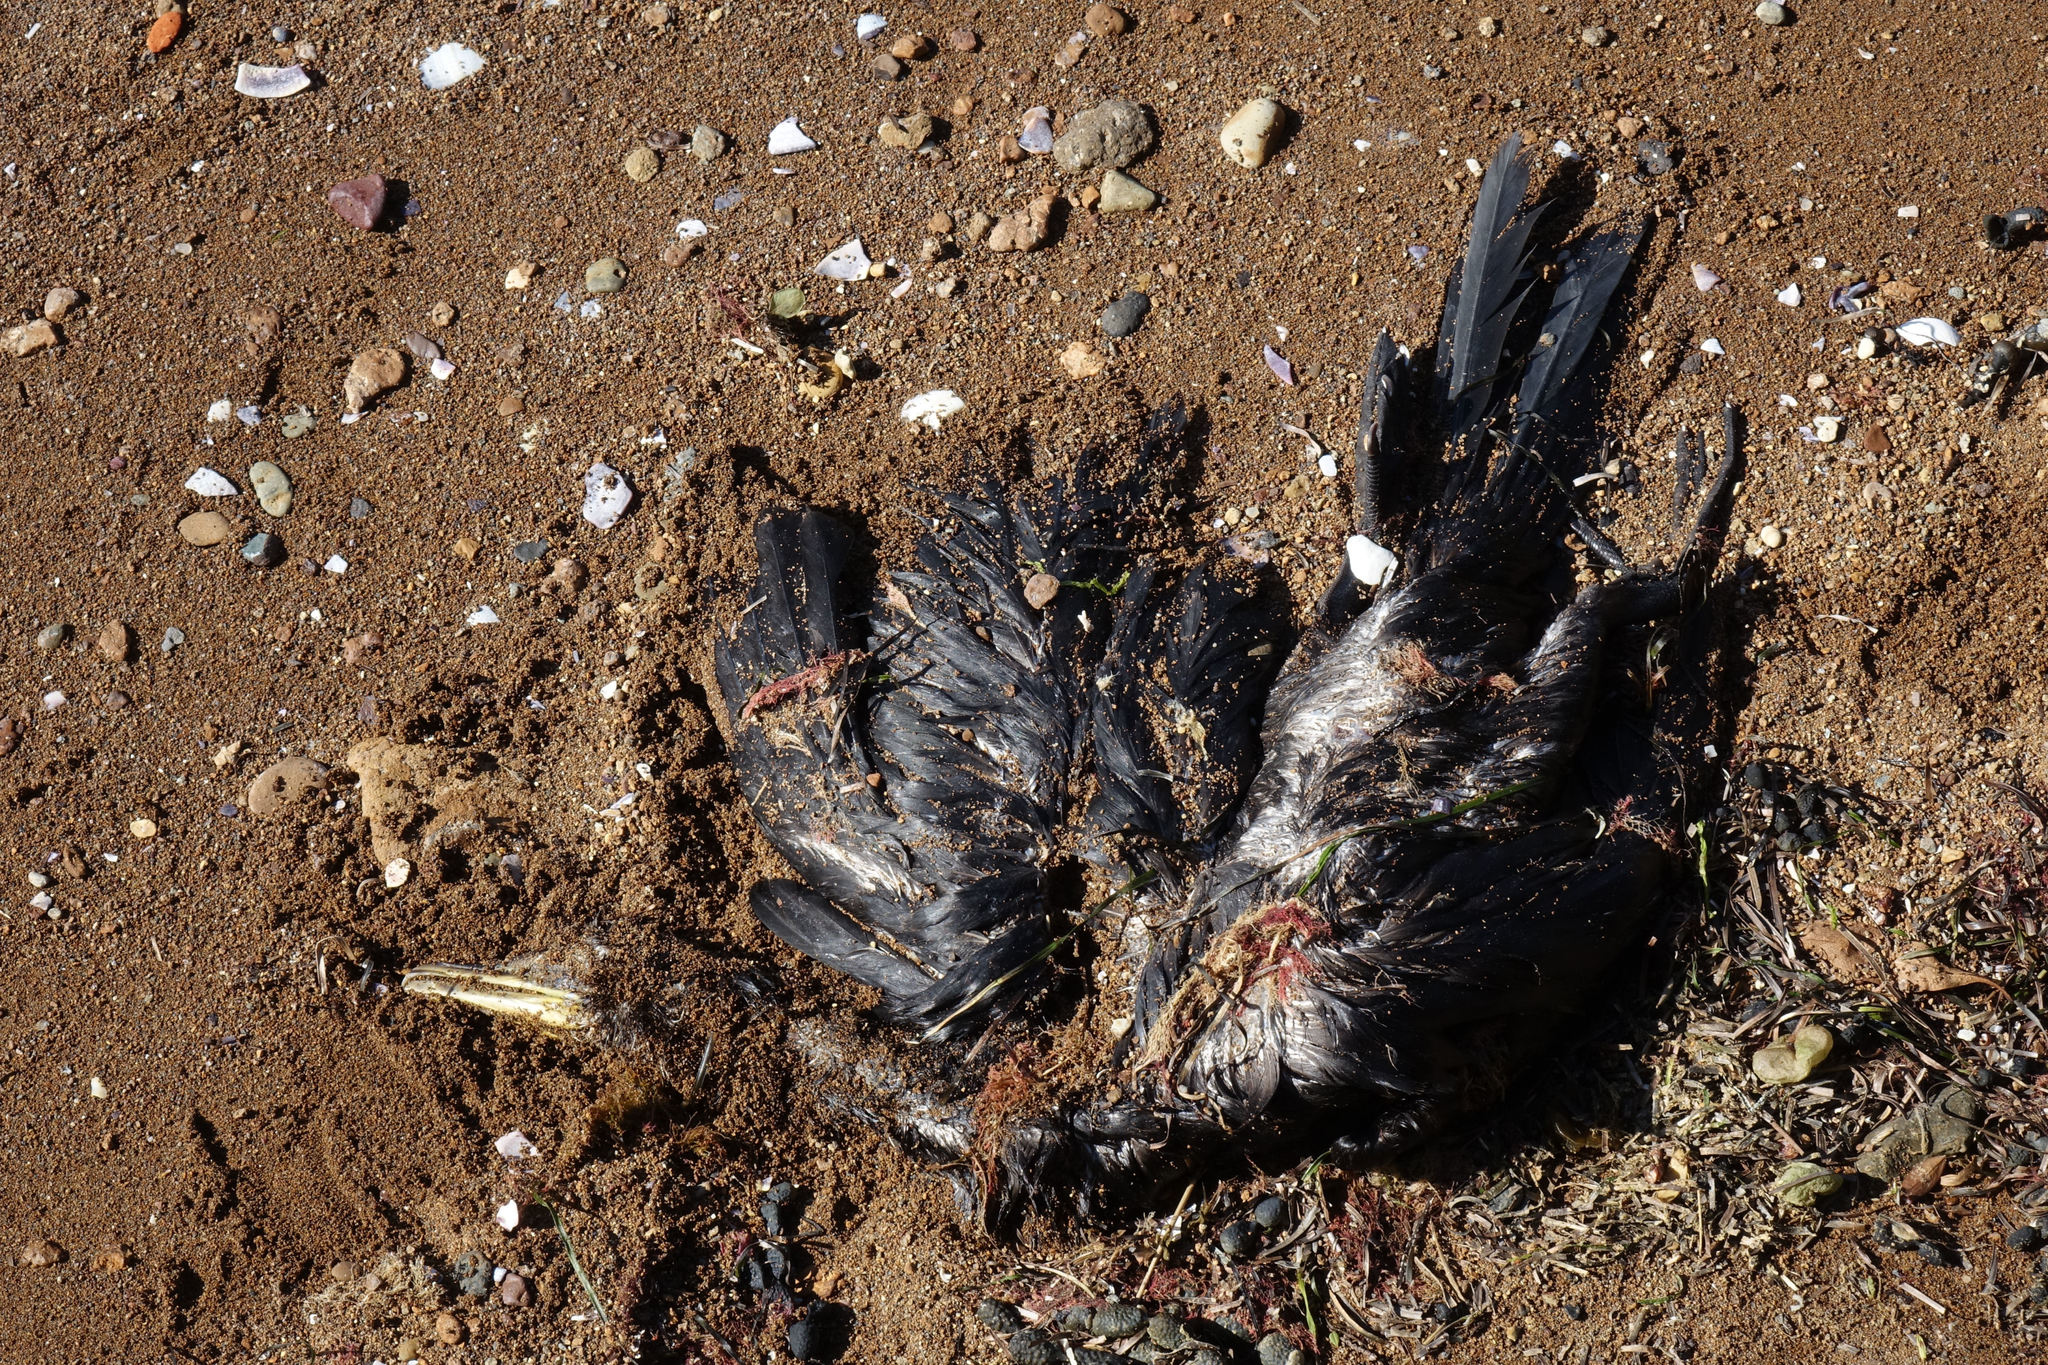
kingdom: Animalia
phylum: Chordata
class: Aves
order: Suliformes
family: Phalacrocoracidae
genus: Microcarbo
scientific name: Microcarbo melanoleucos
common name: Little pied cormorant
